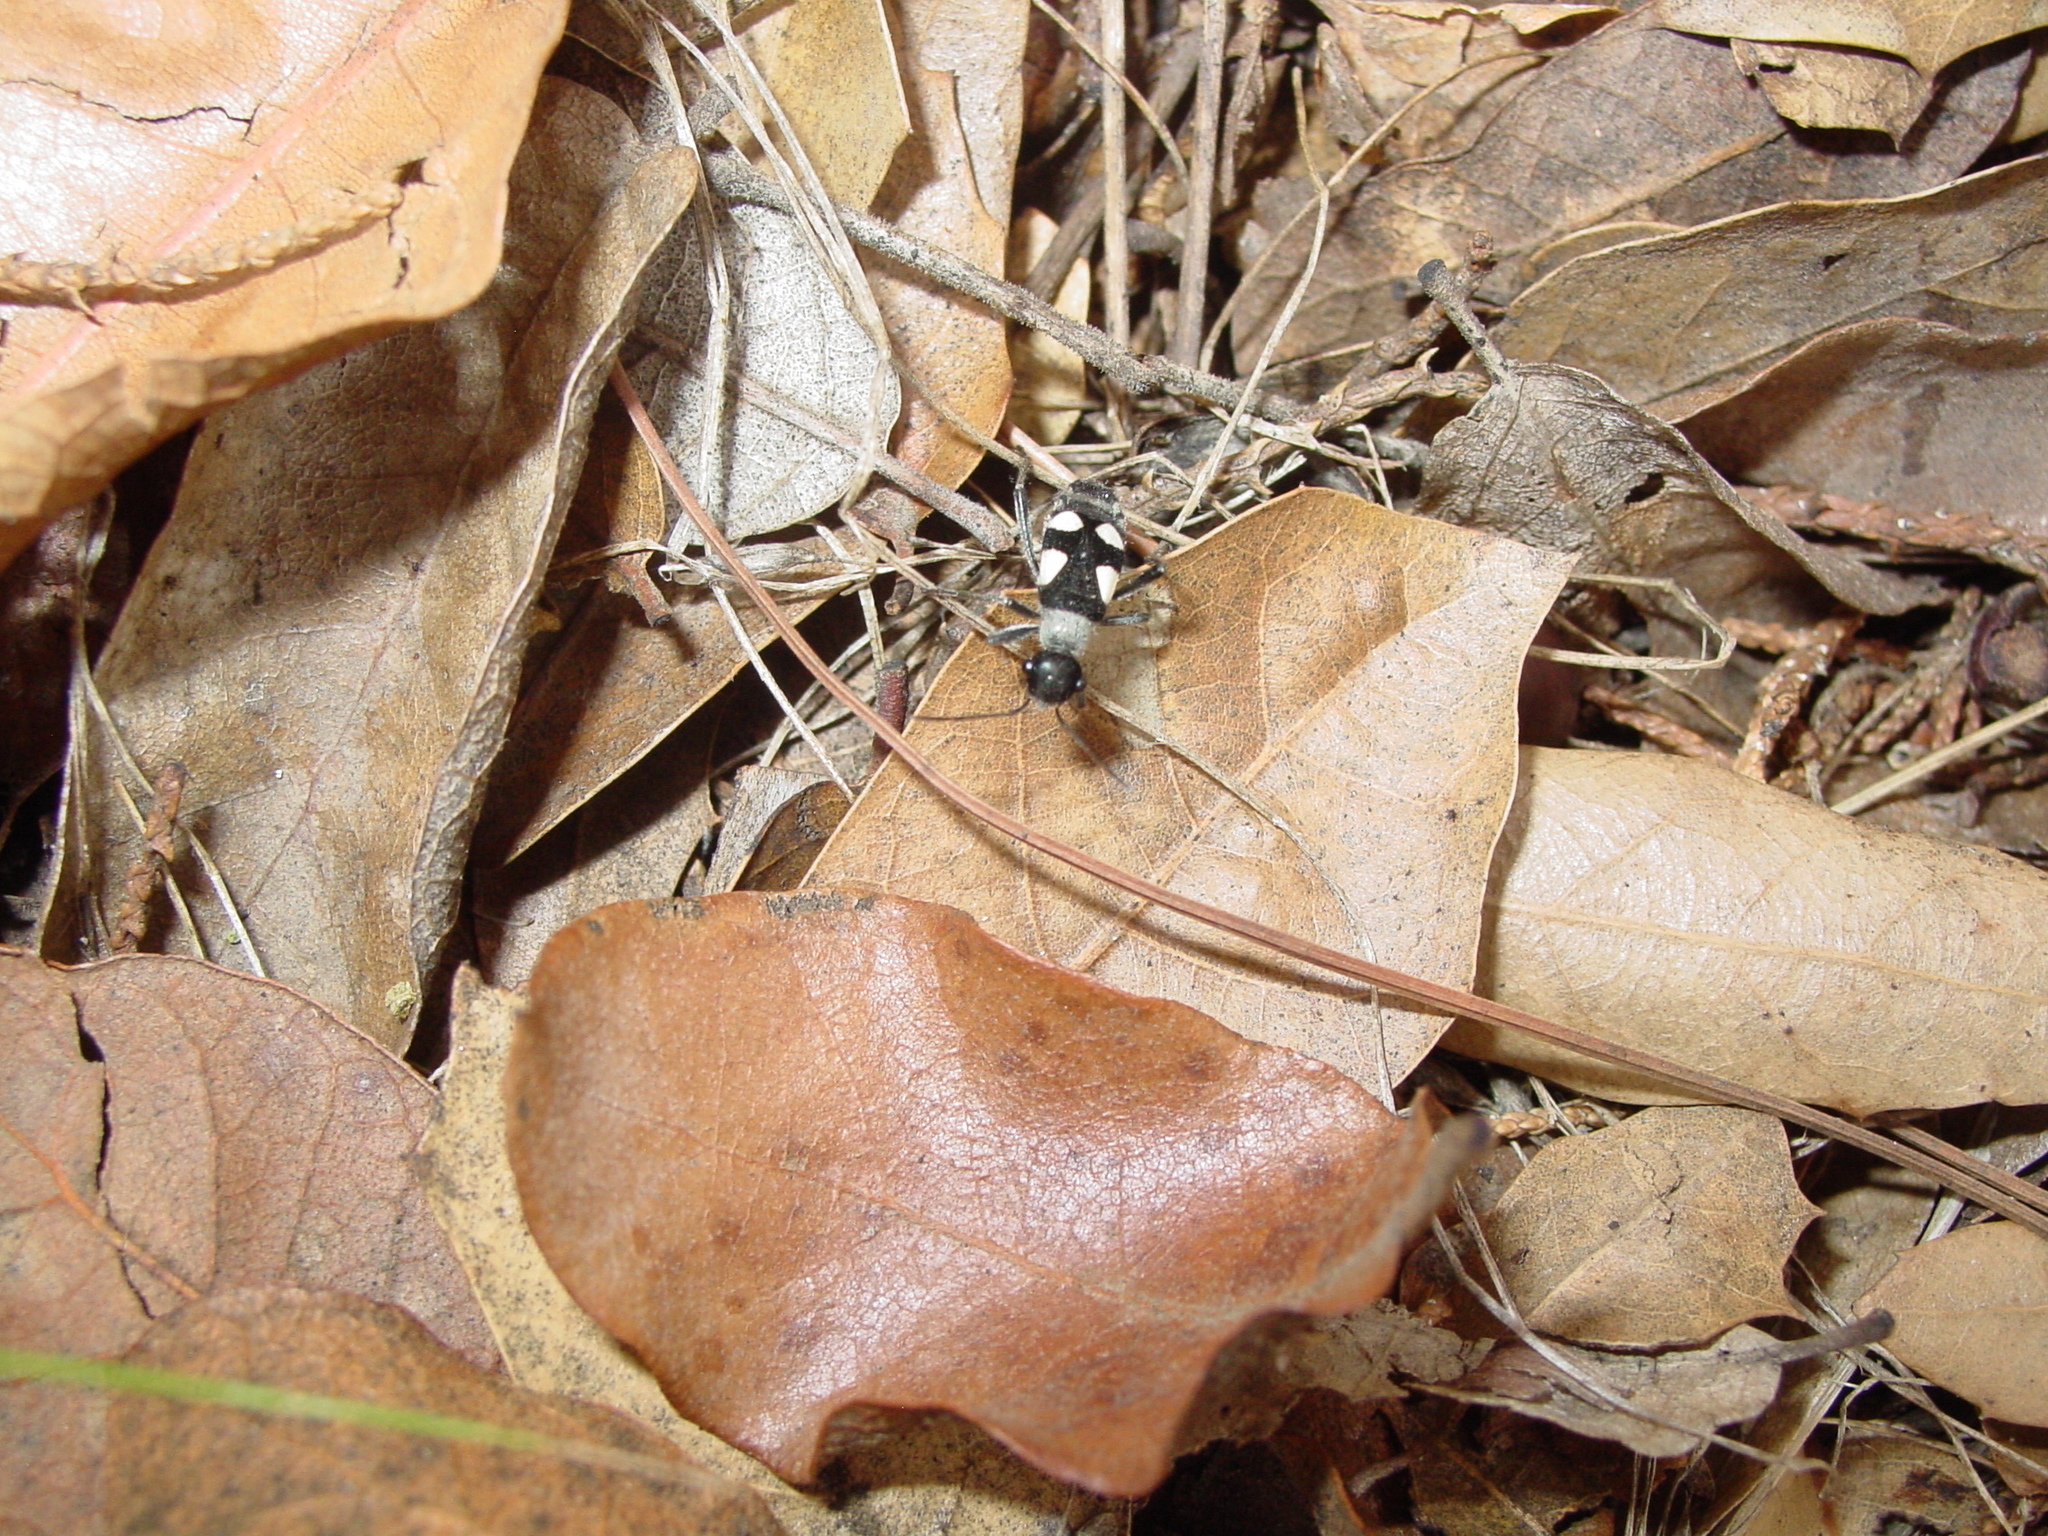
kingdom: Animalia
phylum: Arthropoda
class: Insecta
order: Hemiptera
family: Largidae
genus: Arhaphe
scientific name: Arhaphe arguta
